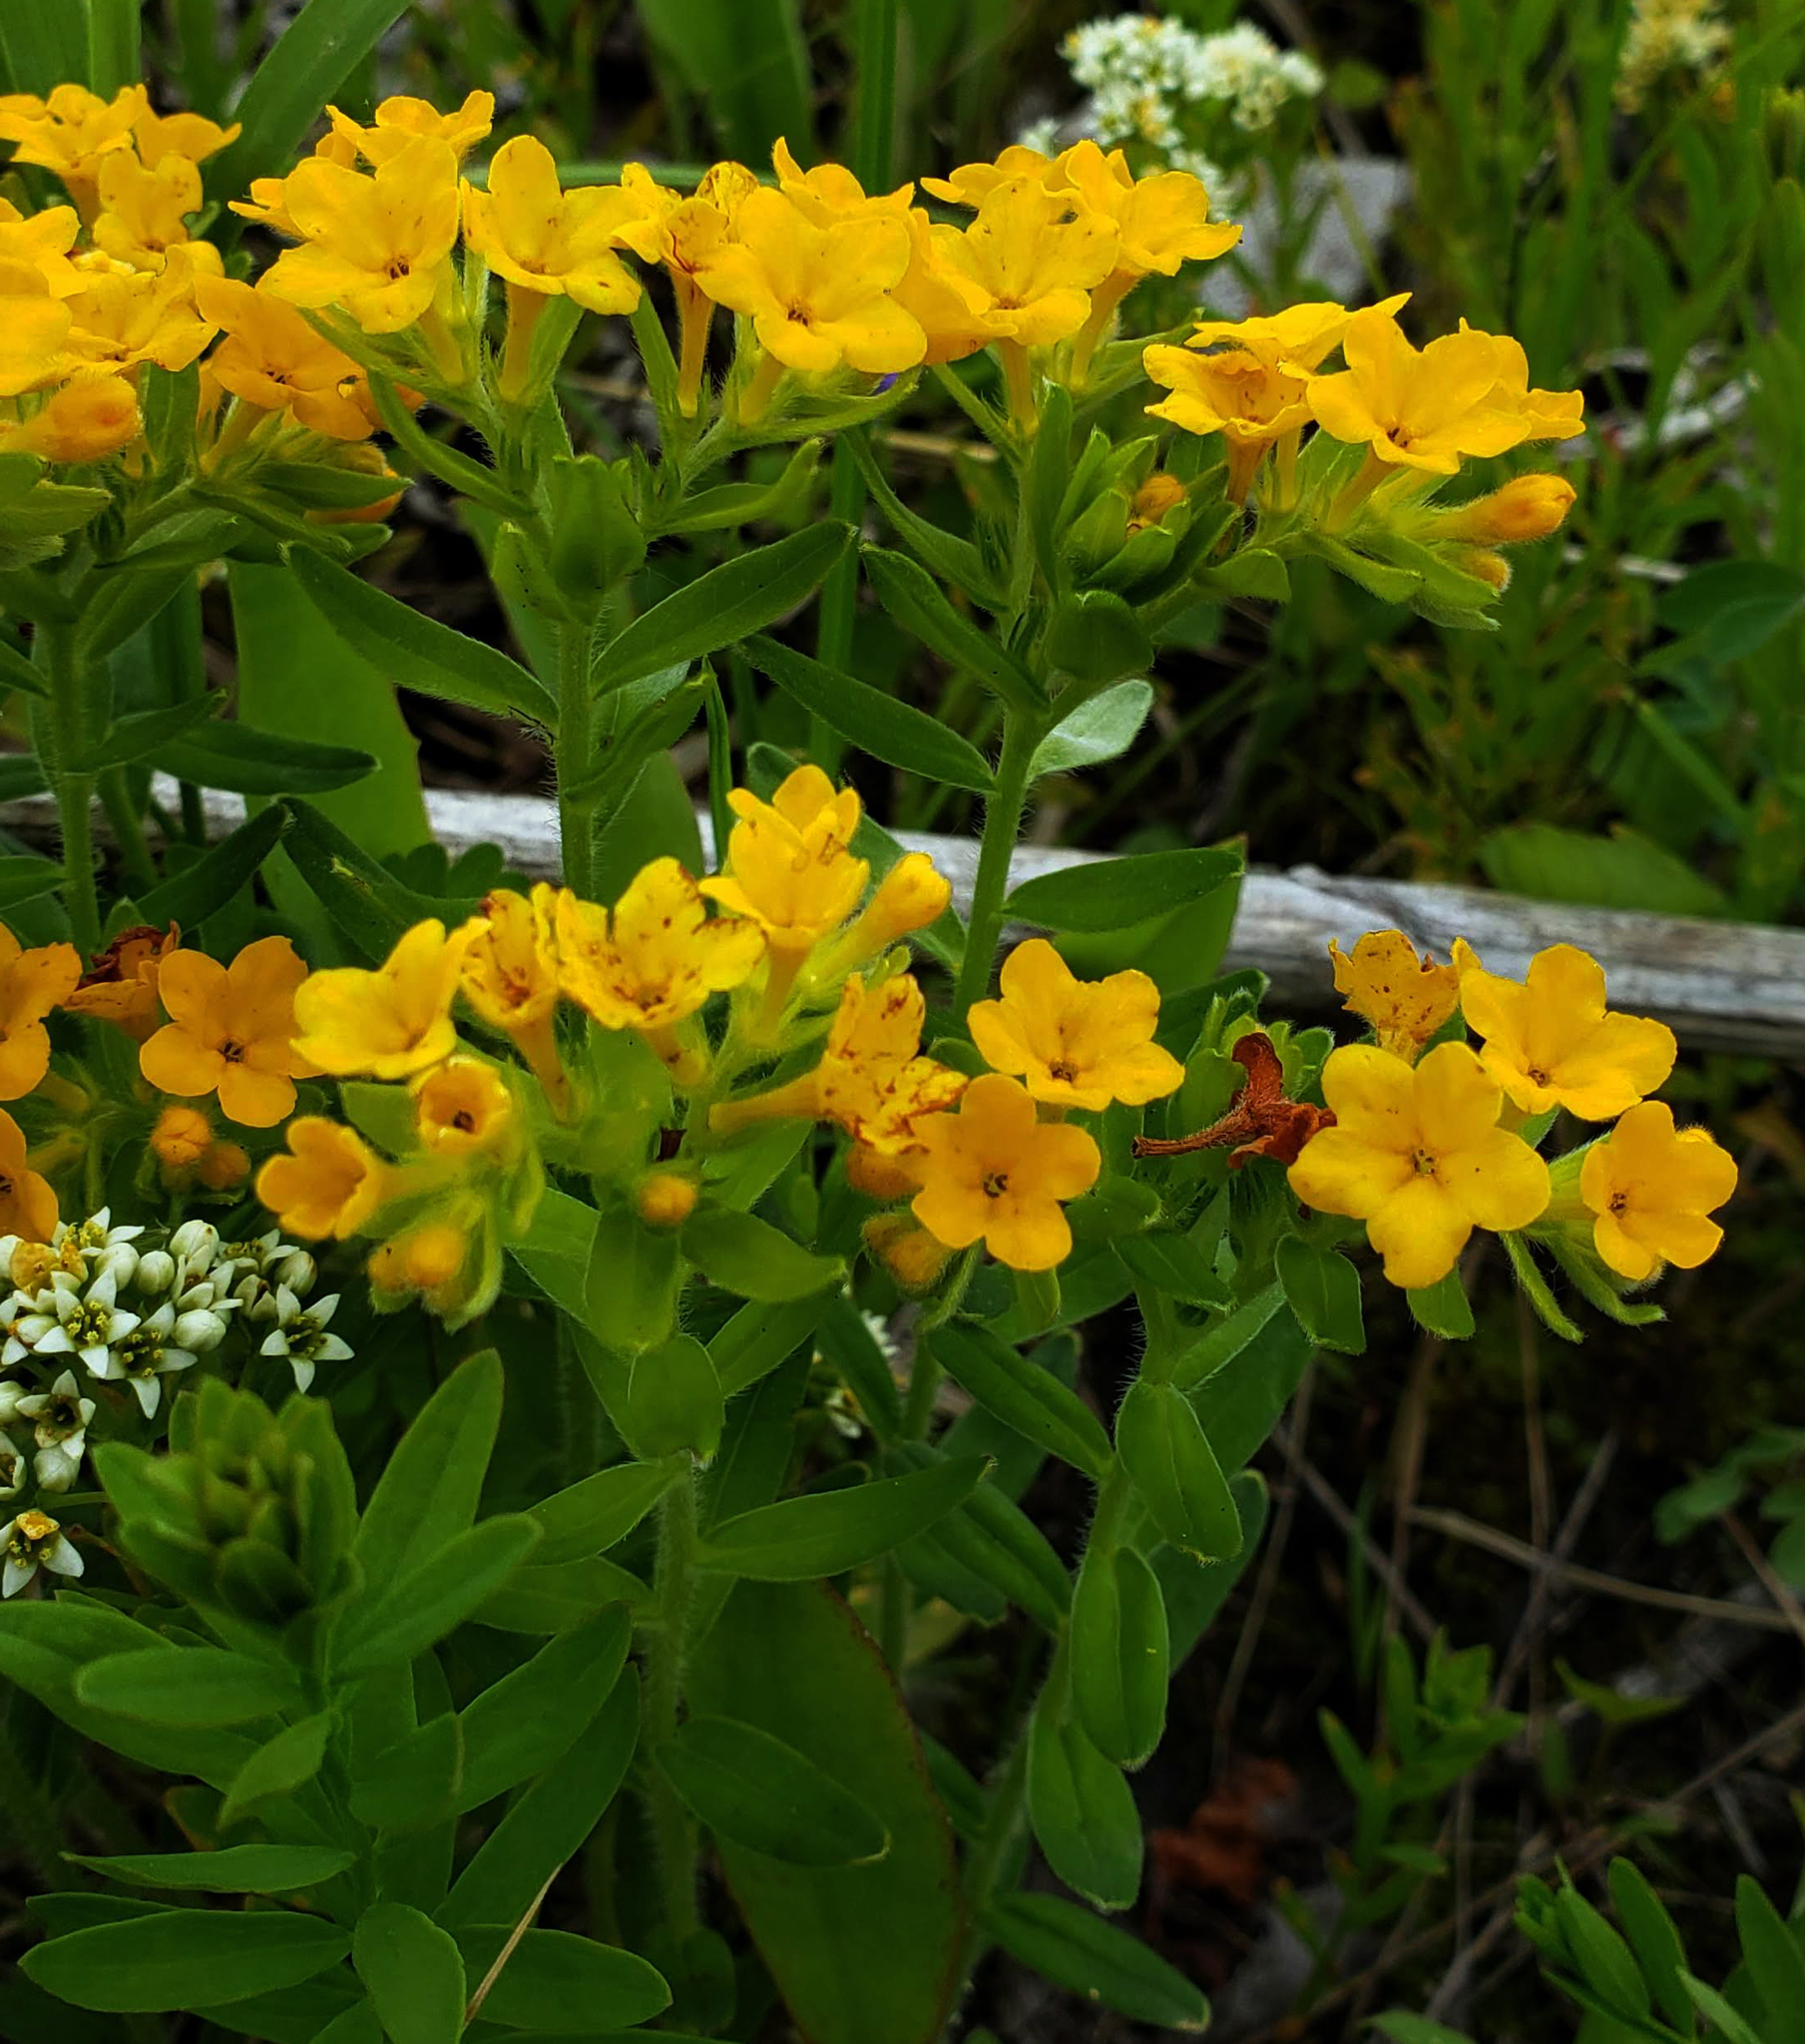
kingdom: Plantae
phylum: Tracheophyta
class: Magnoliopsida
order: Boraginales
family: Boraginaceae
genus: Lithospermum
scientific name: Lithospermum canescens
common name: Hoary puccoon
